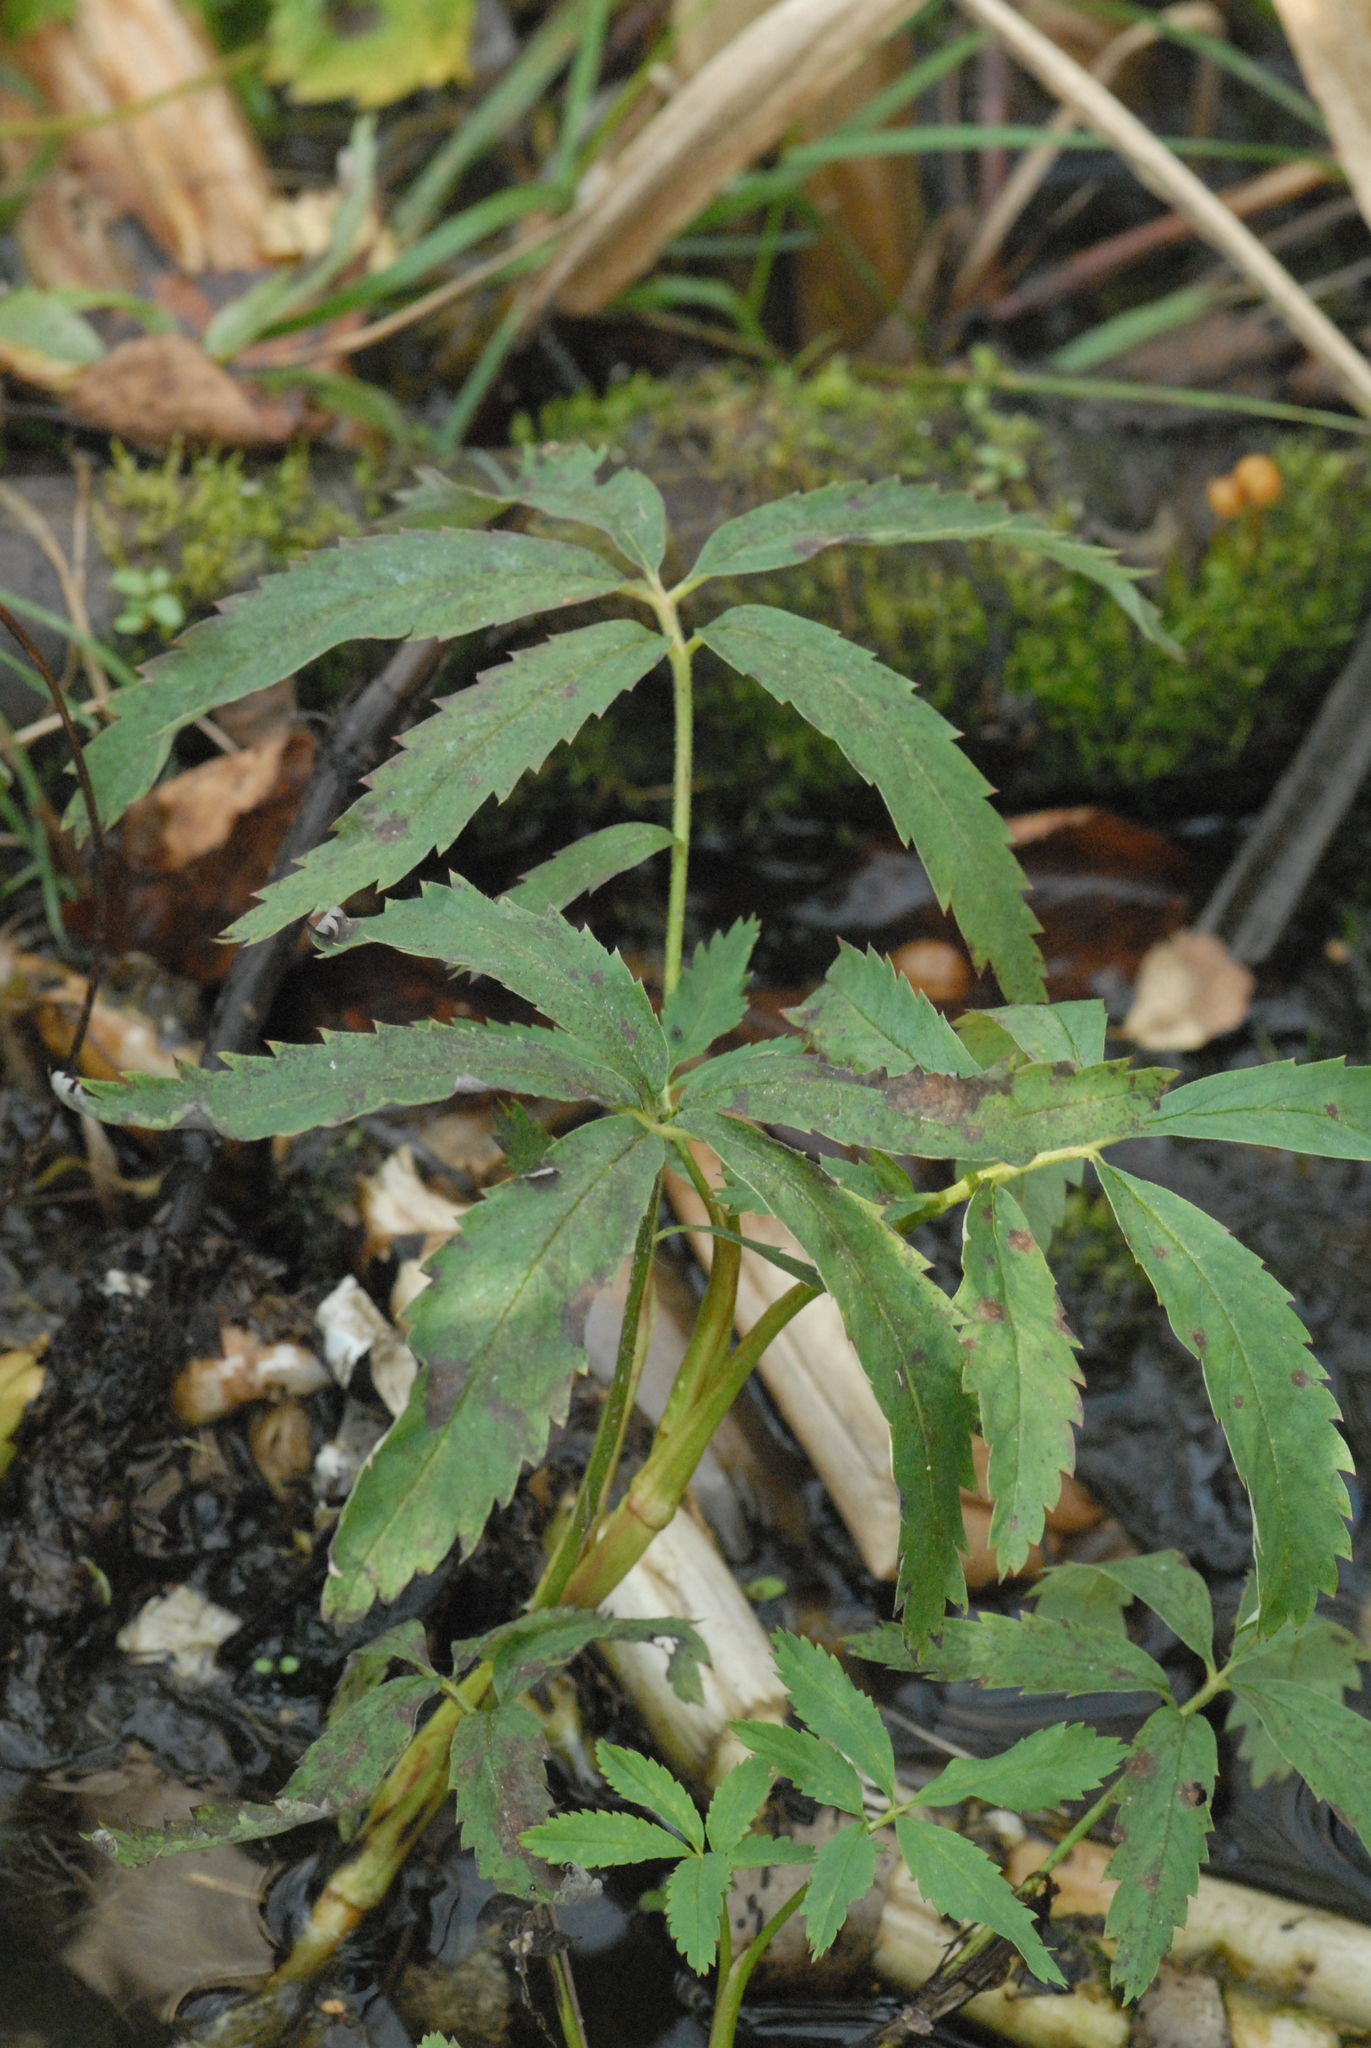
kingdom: Plantae
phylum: Tracheophyta
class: Magnoliopsida
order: Rosales
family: Rosaceae
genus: Comarum
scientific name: Comarum palustre
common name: Marsh cinquefoil
